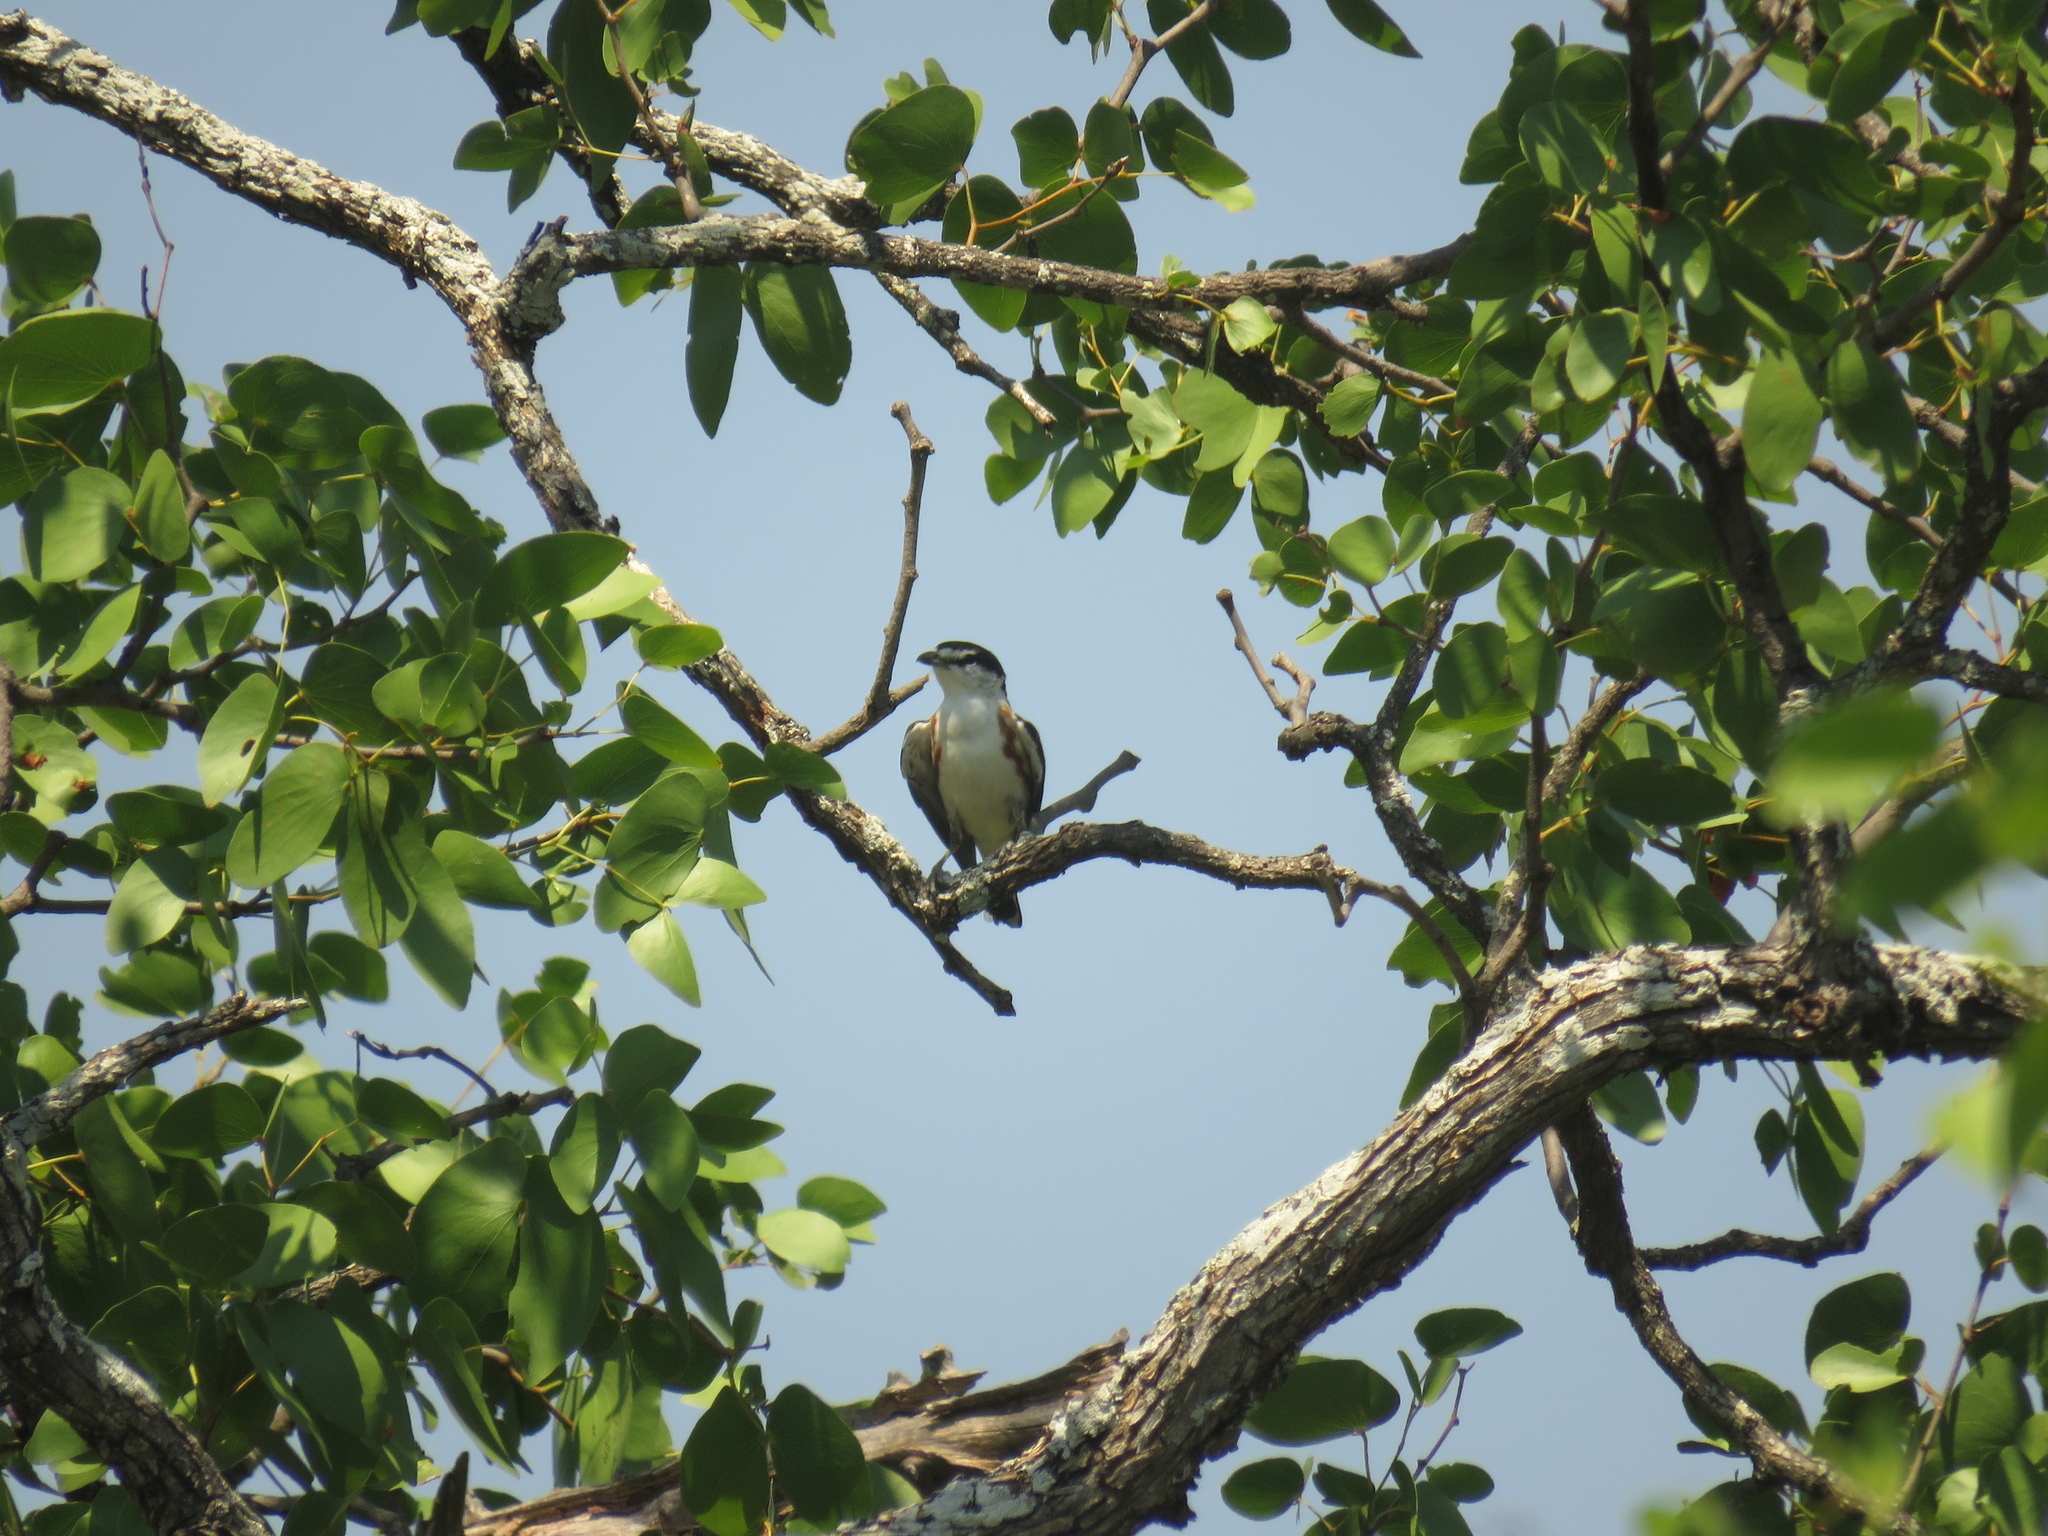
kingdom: Animalia
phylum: Chordata
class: Aves
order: Passeriformes
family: Malaconotidae
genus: Nilaus
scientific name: Nilaus afer
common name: Brubru
